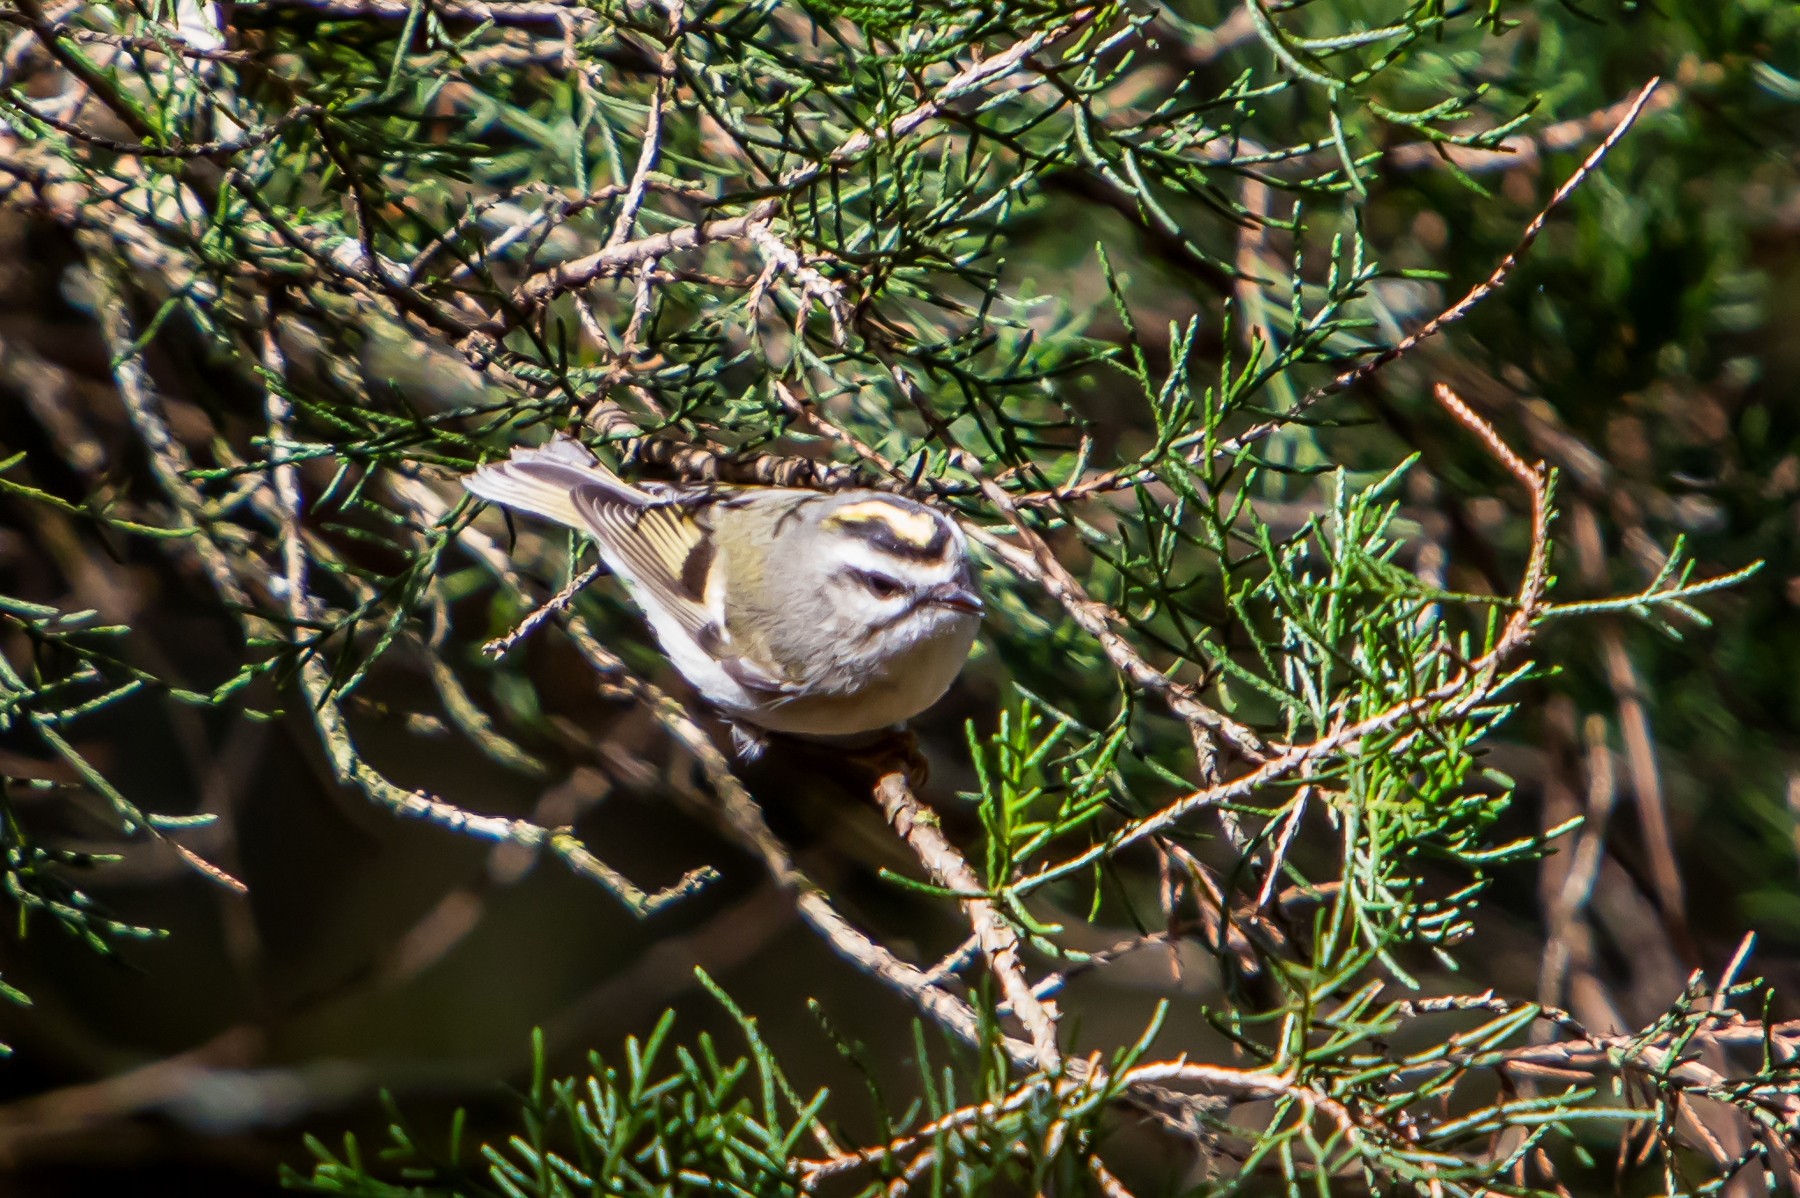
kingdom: Animalia
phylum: Chordata
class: Aves
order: Passeriformes
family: Regulidae
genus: Regulus
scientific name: Regulus satrapa
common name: Golden-crowned kinglet
